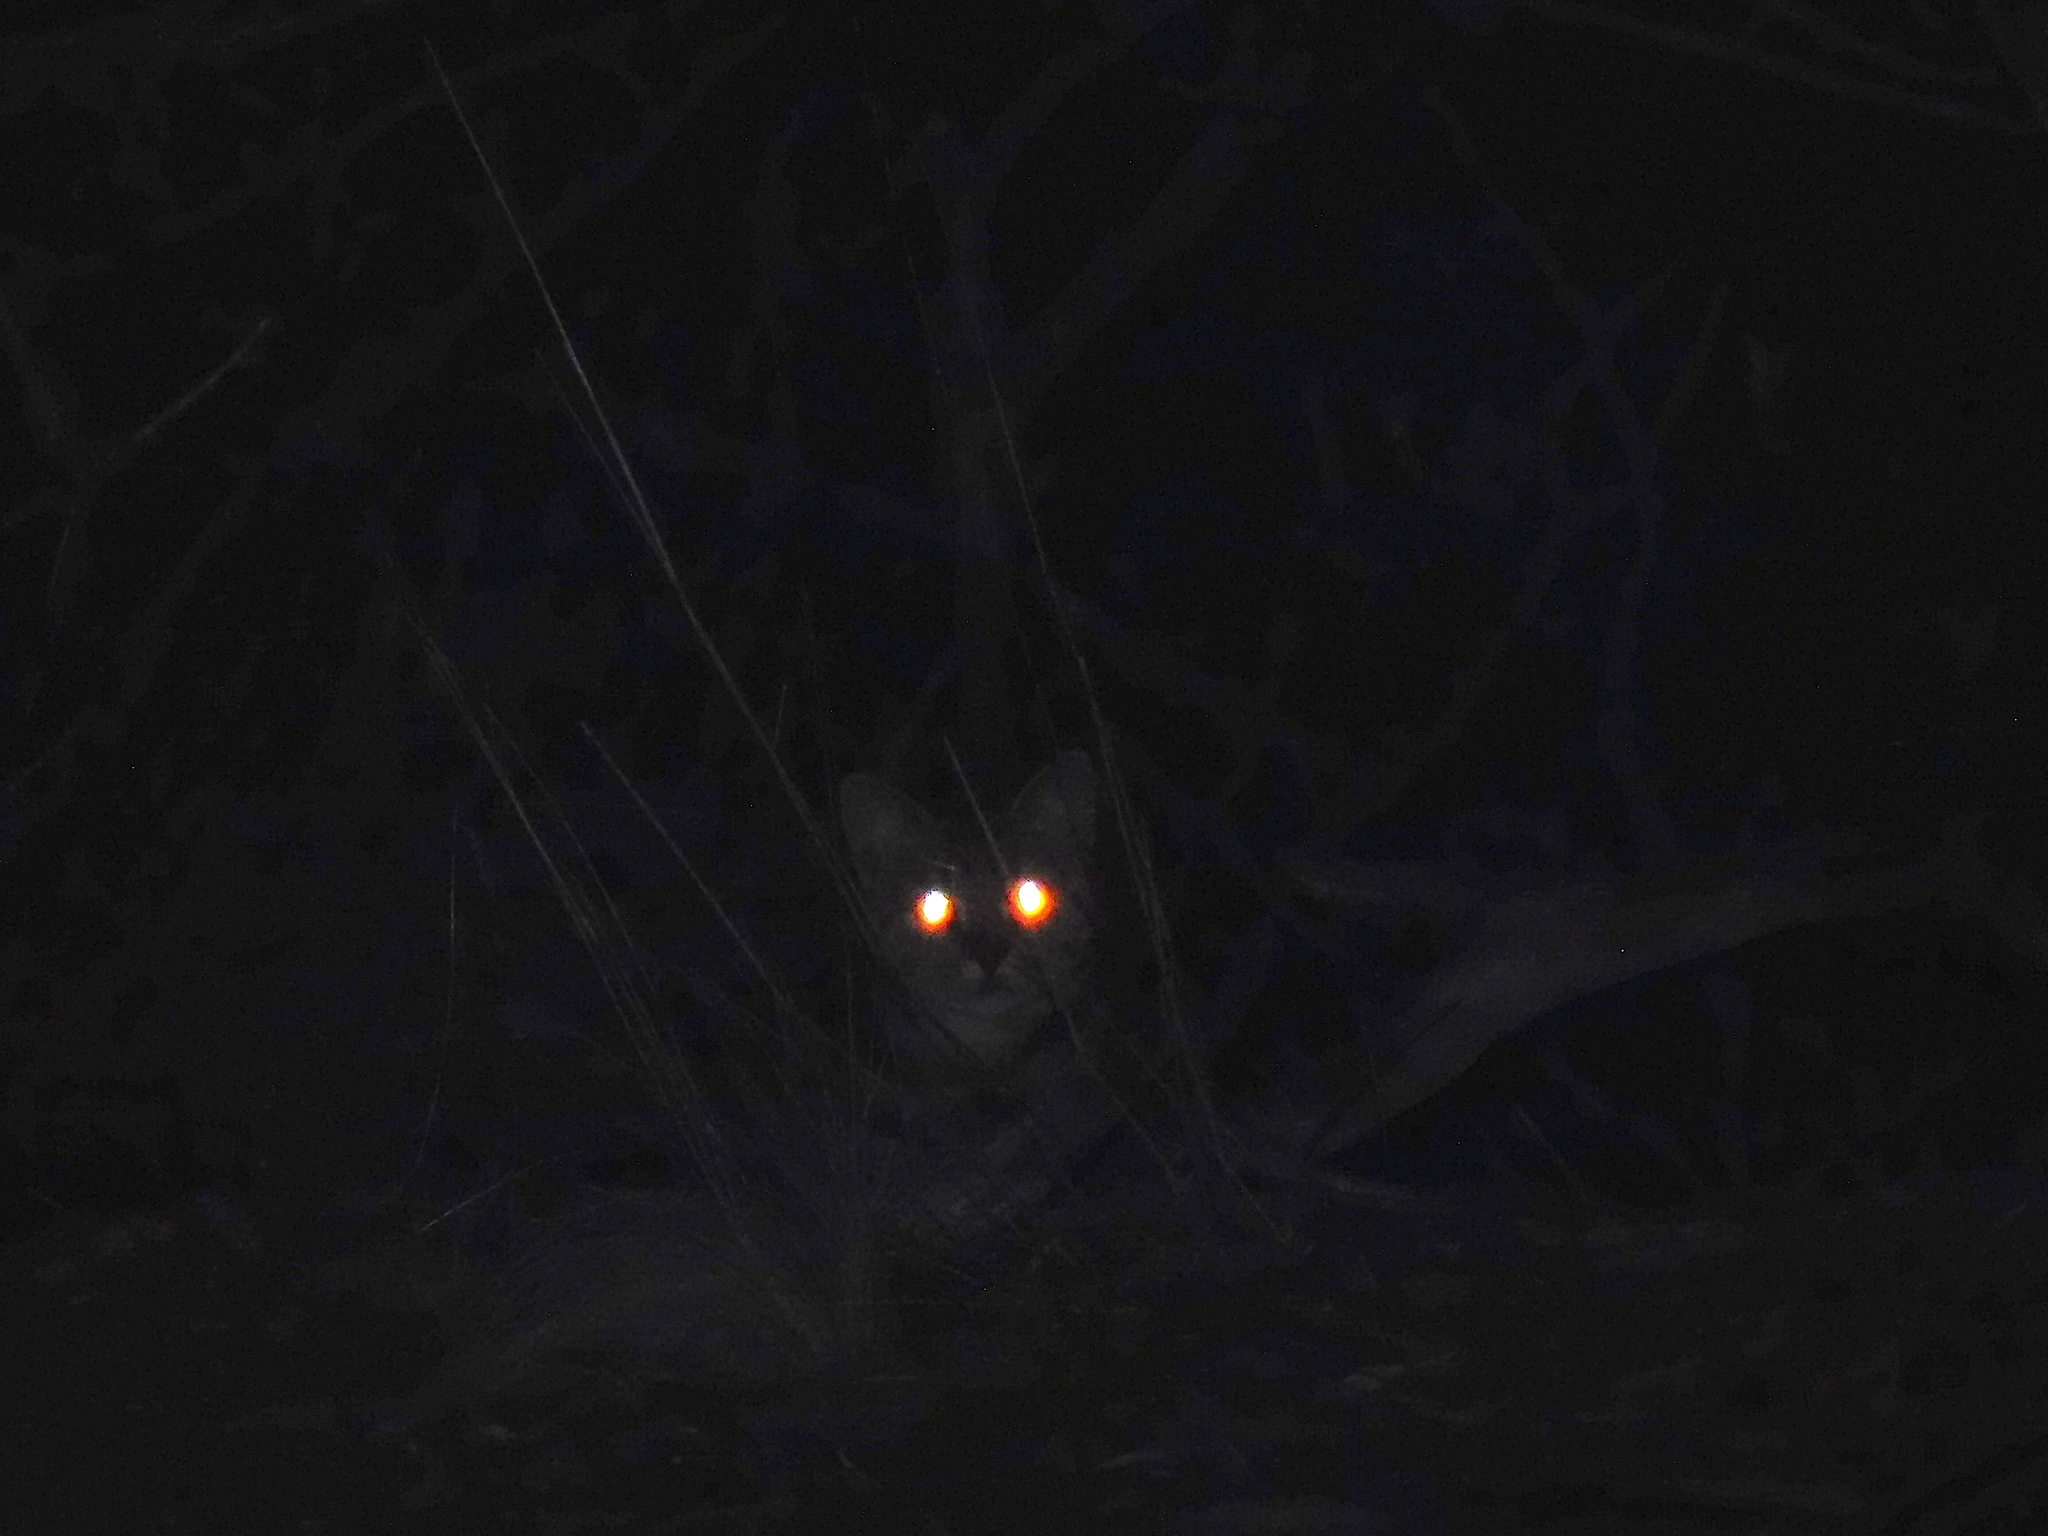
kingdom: Animalia
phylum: Chordata
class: Mammalia
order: Carnivora
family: Felidae
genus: Felis
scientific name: Felis catus
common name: Domestic cat
